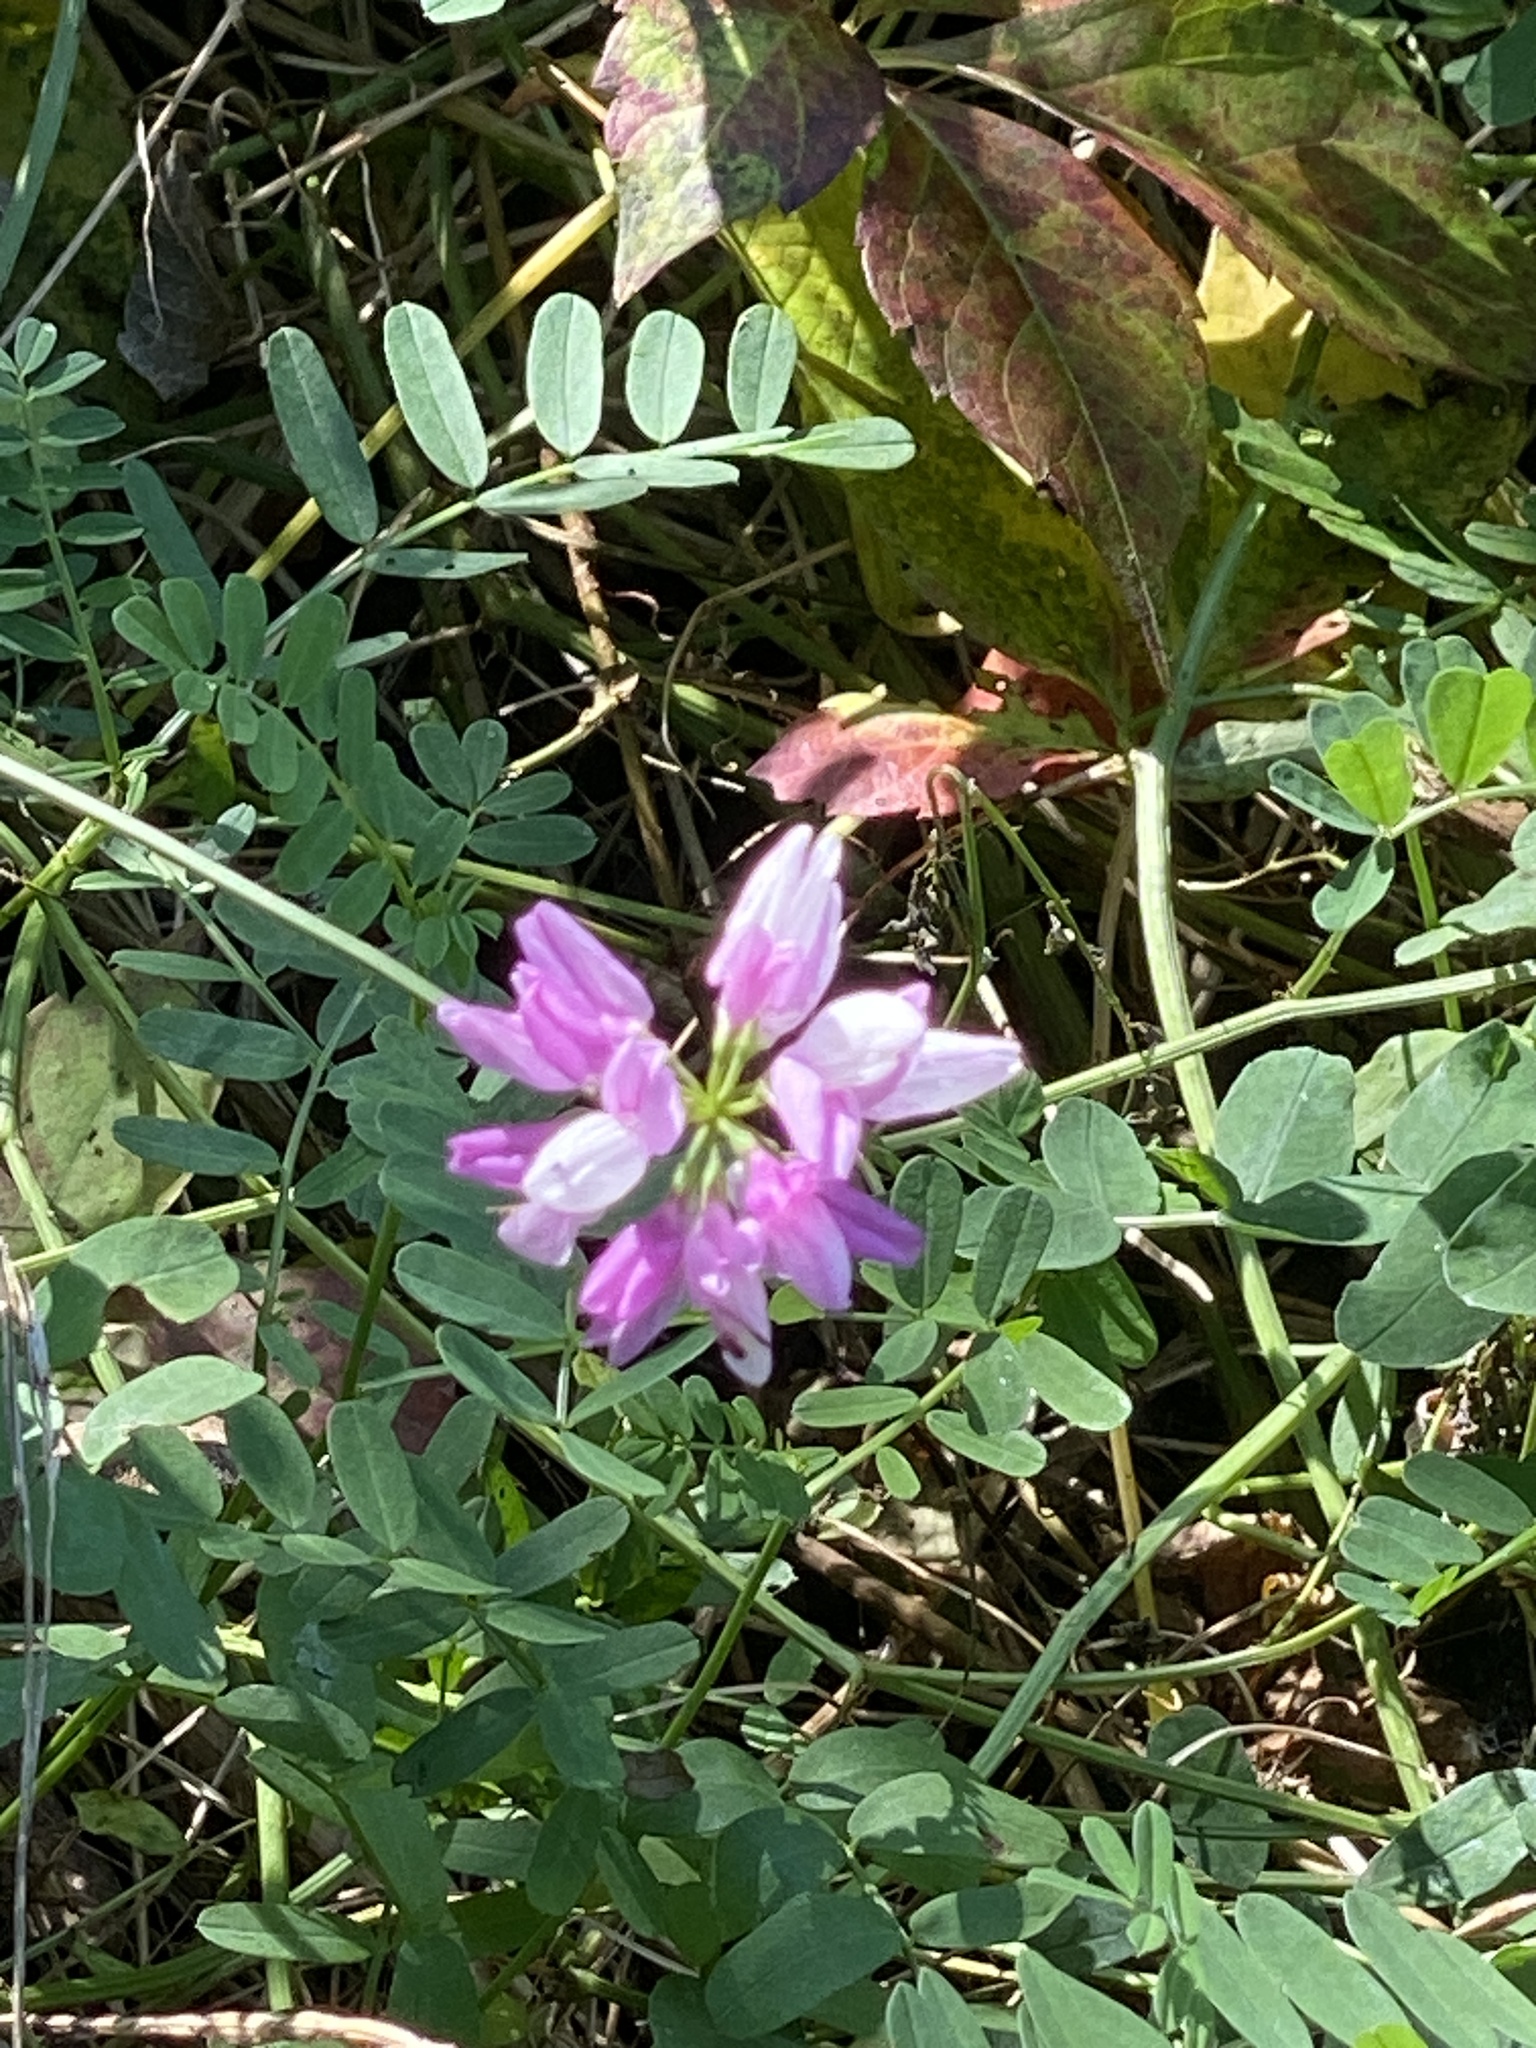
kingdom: Plantae
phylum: Tracheophyta
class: Magnoliopsida
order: Fabales
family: Fabaceae
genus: Coronilla
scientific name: Coronilla varia
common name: Crownvetch
